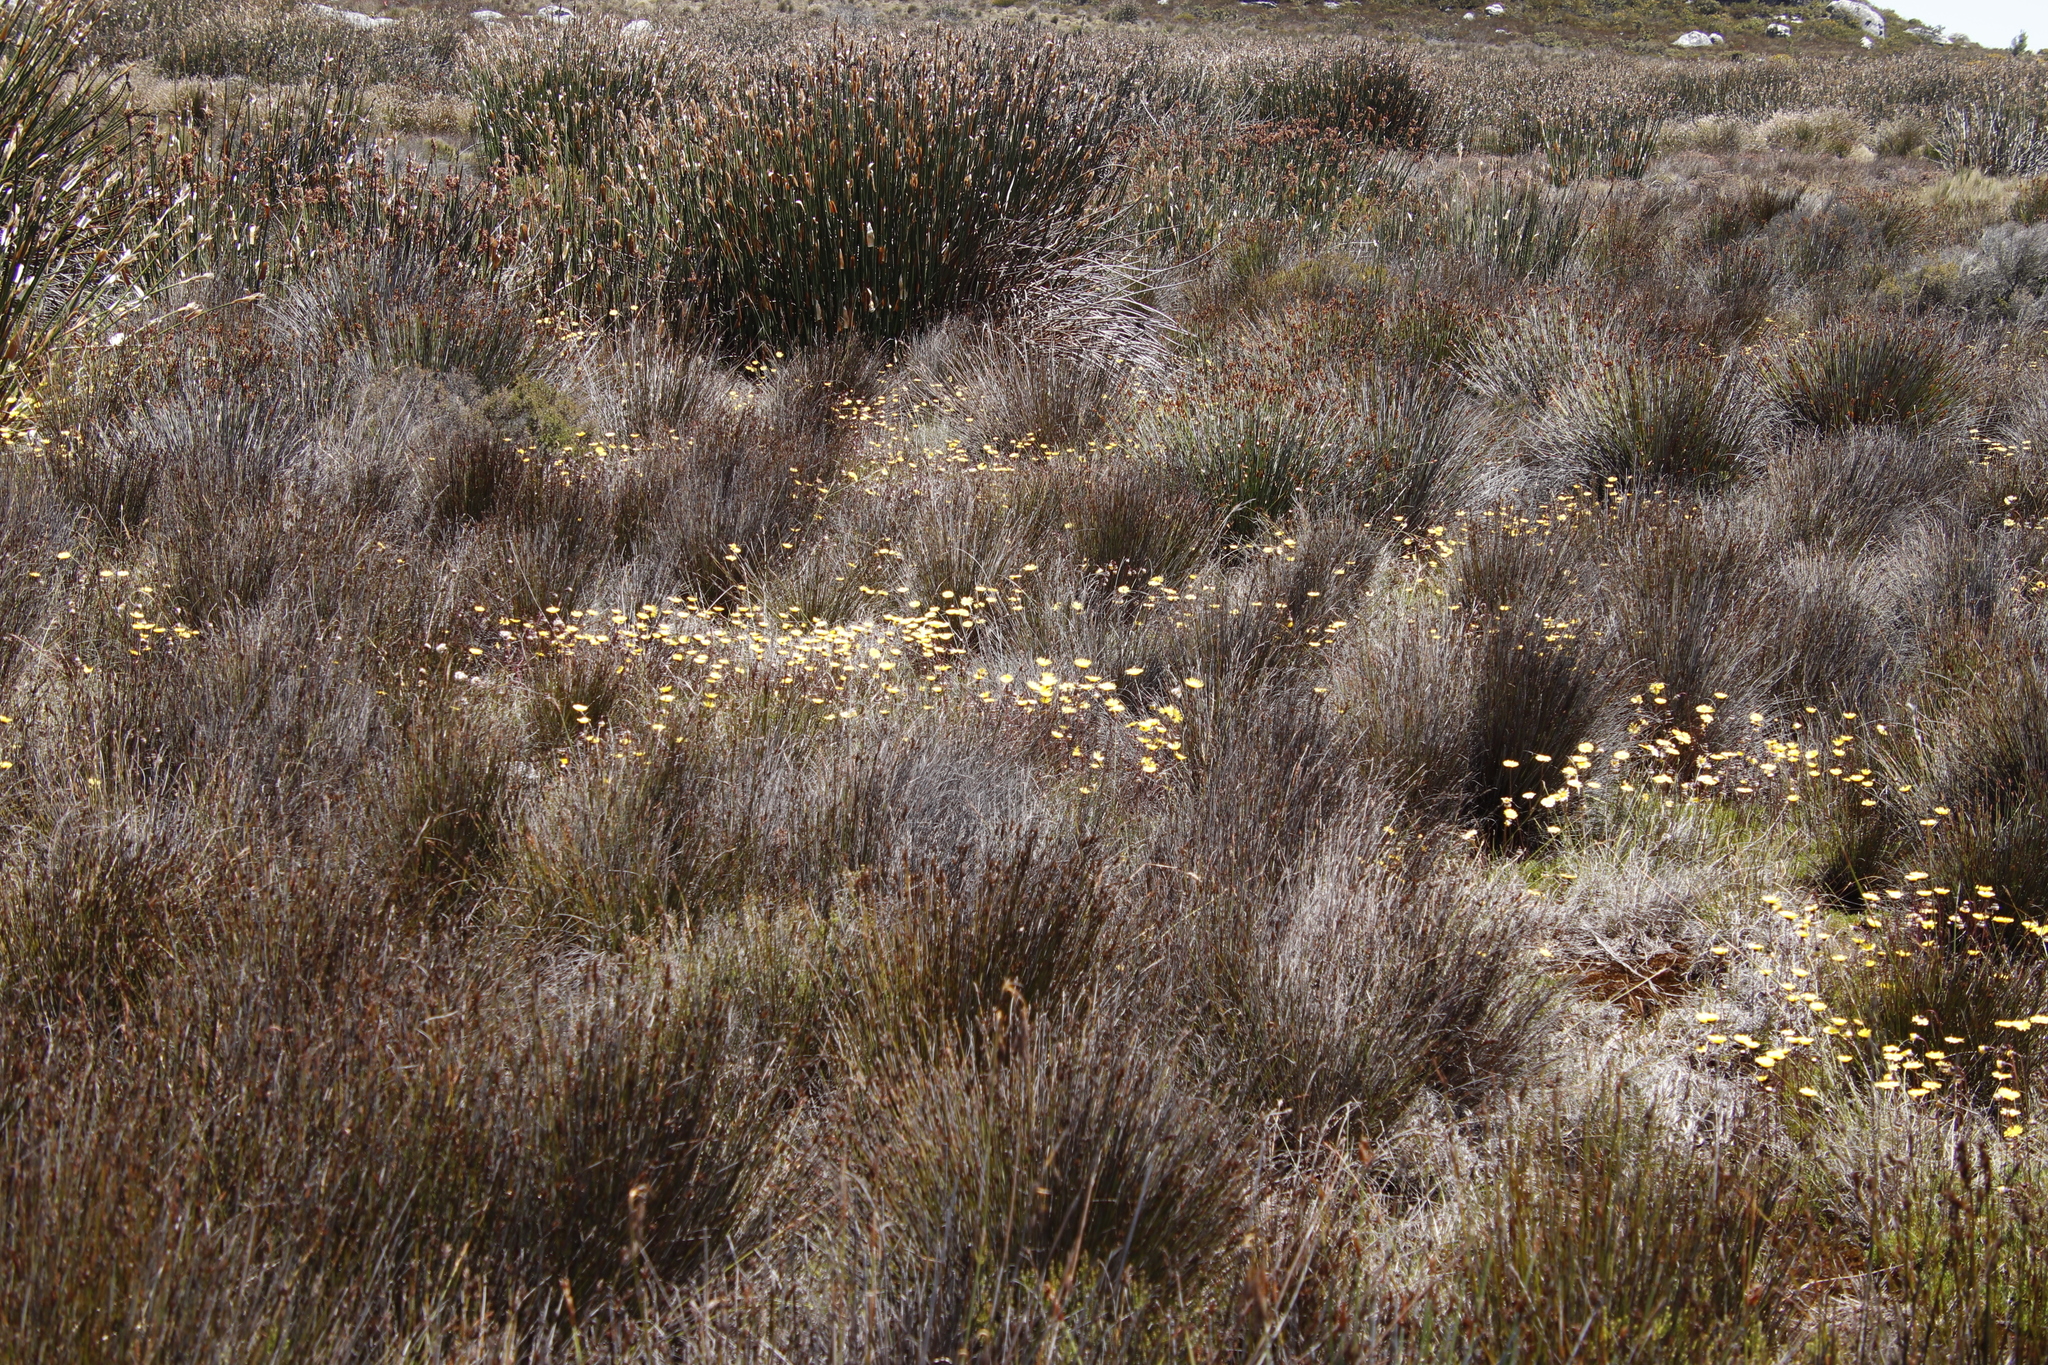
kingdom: Plantae
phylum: Tracheophyta
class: Magnoliopsida
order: Asterales
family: Asteraceae
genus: Ursinia
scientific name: Ursinia nudicaulis
